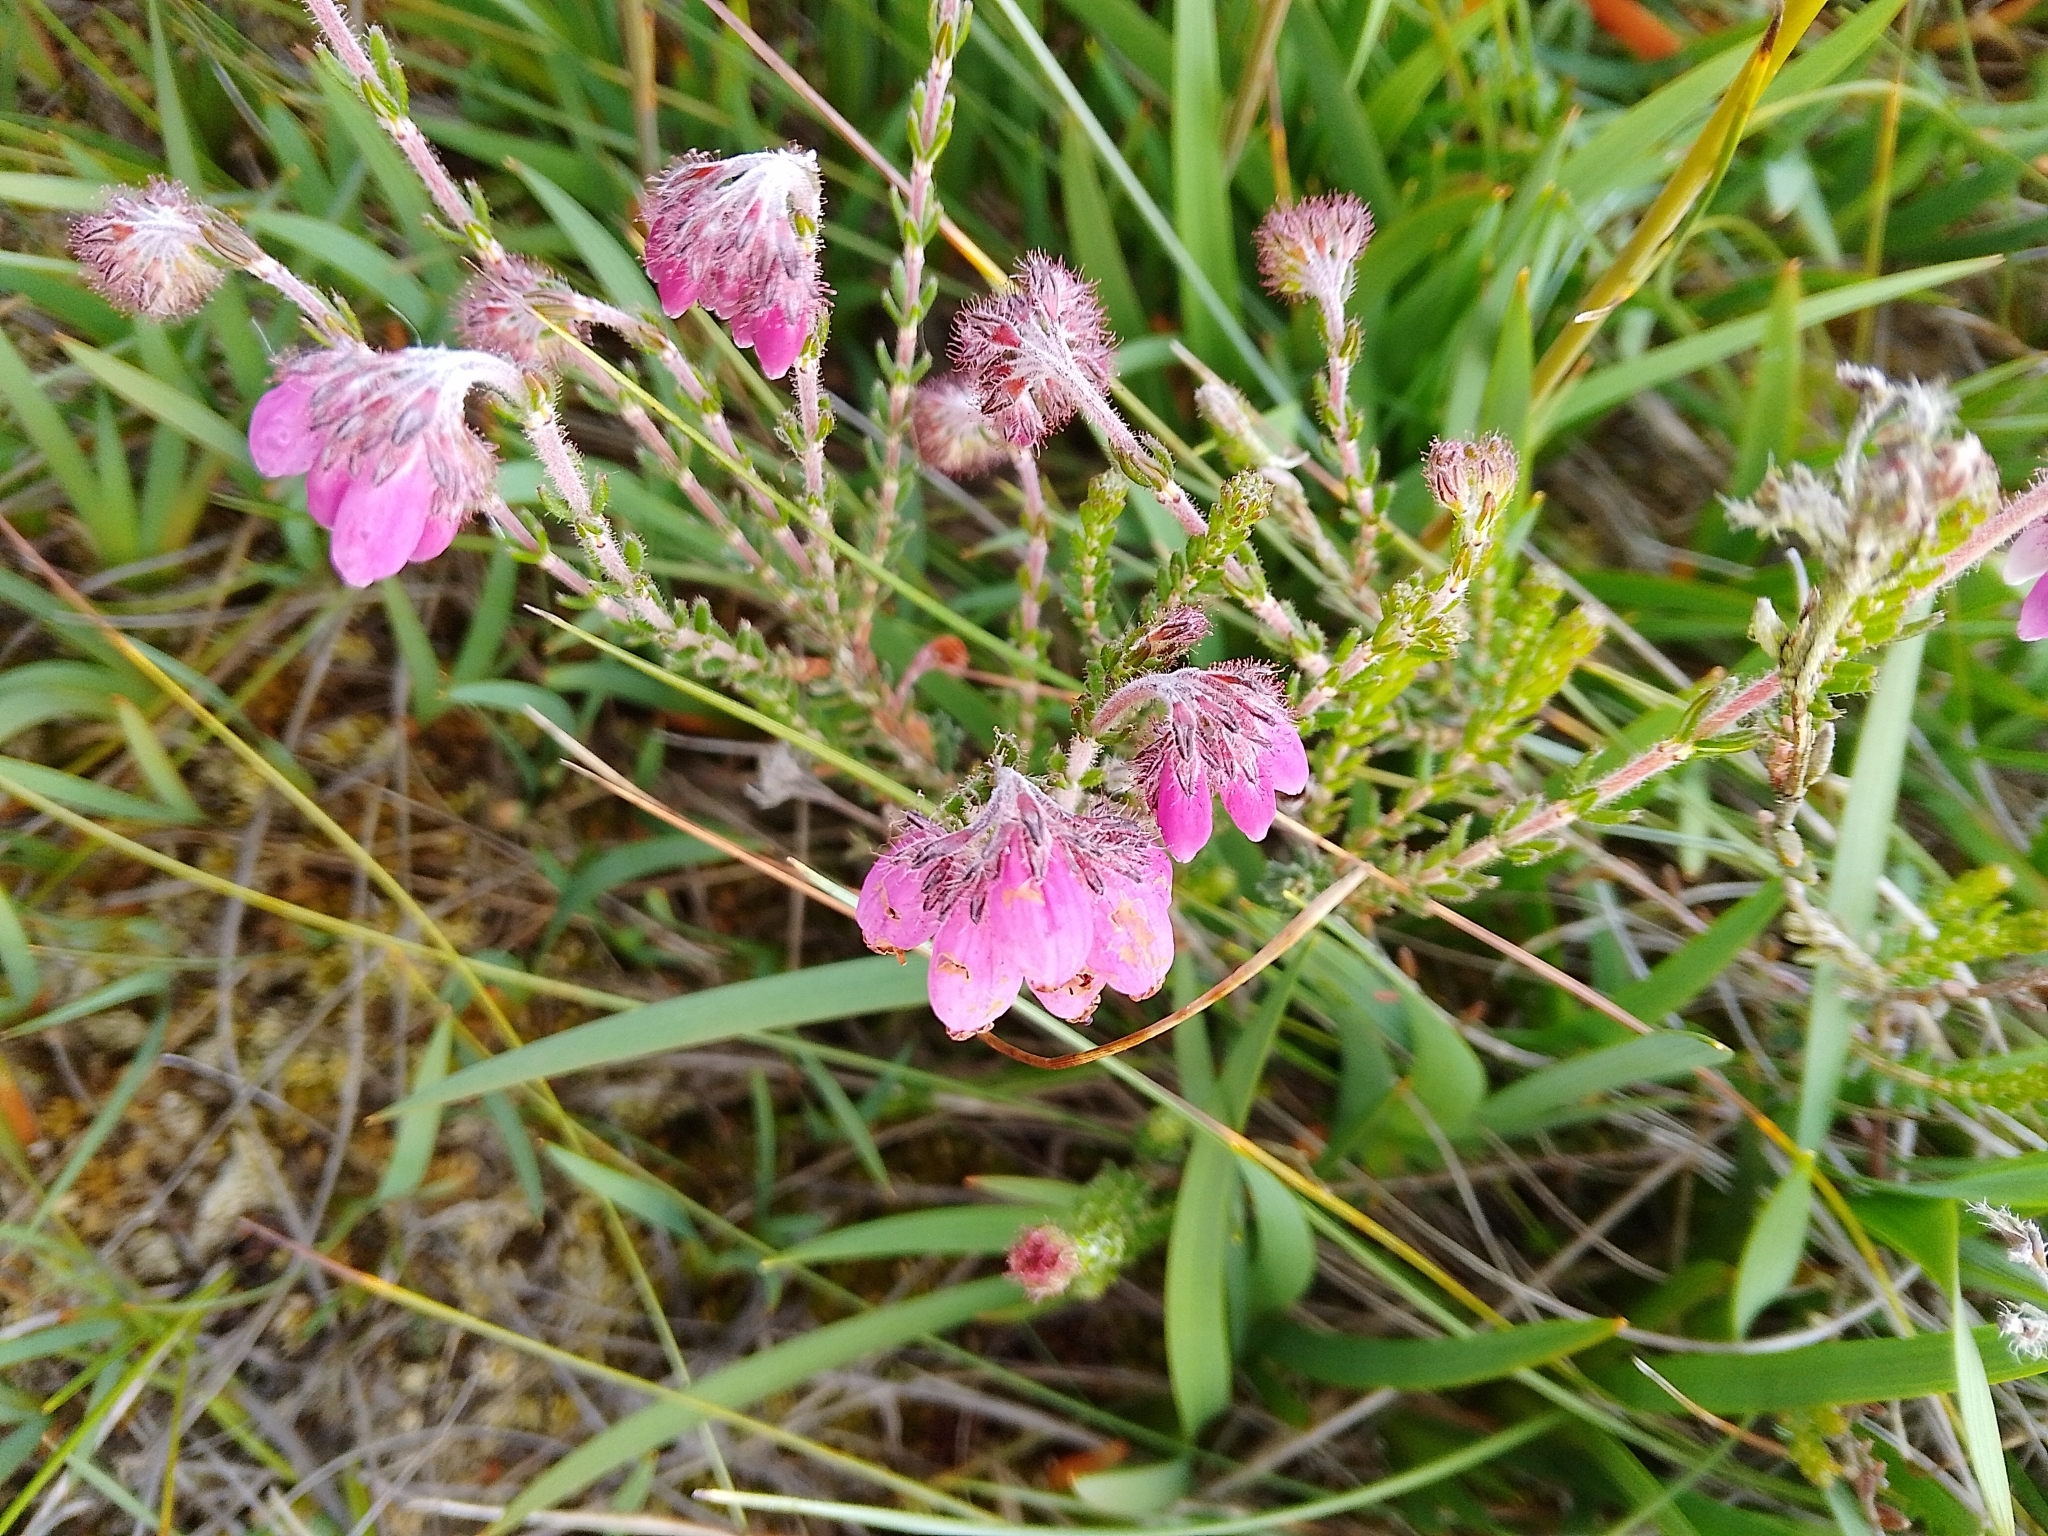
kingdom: Plantae
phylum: Tracheophyta
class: Magnoliopsida
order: Ericales
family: Ericaceae
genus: Erica
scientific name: Erica tetralix
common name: Cross-leaved heath
